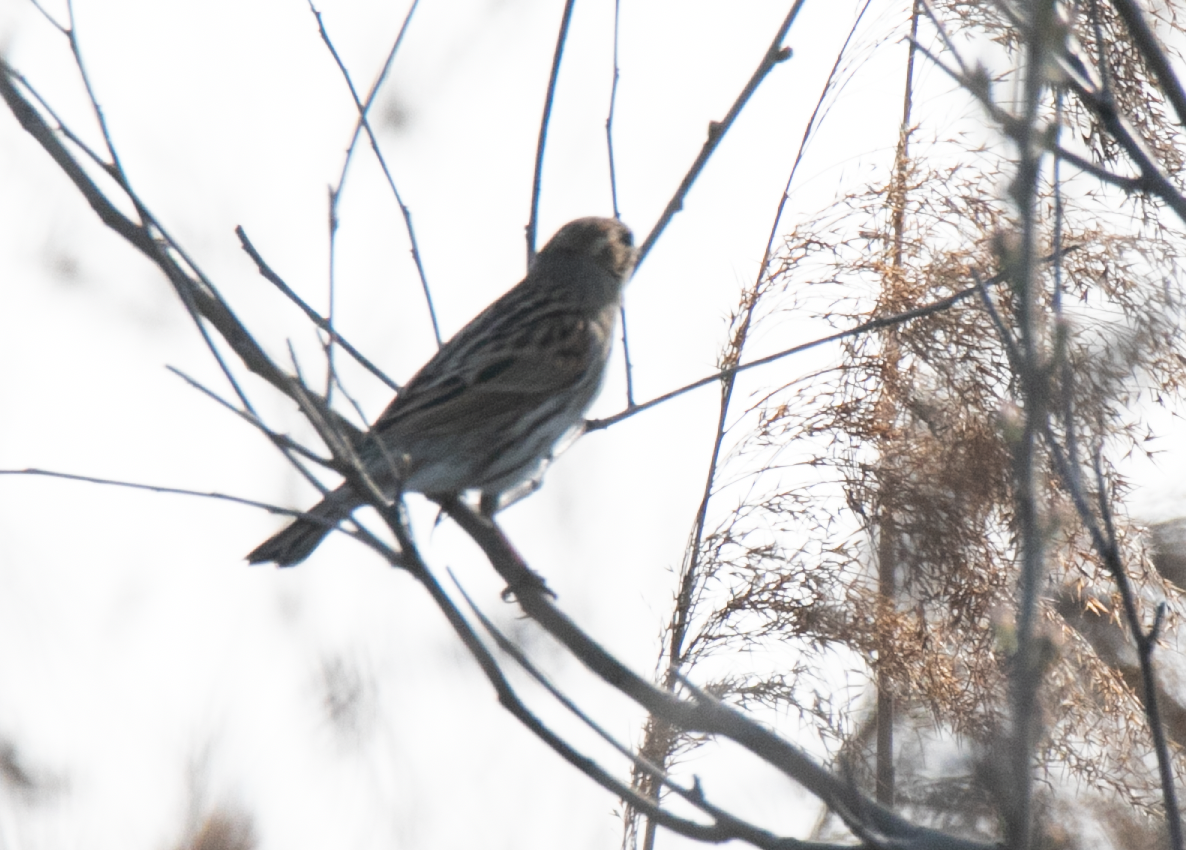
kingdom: Animalia
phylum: Chordata
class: Aves
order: Passeriformes
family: Emberizidae
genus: Emberiza
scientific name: Emberiza schoeniclus
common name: Reed bunting
